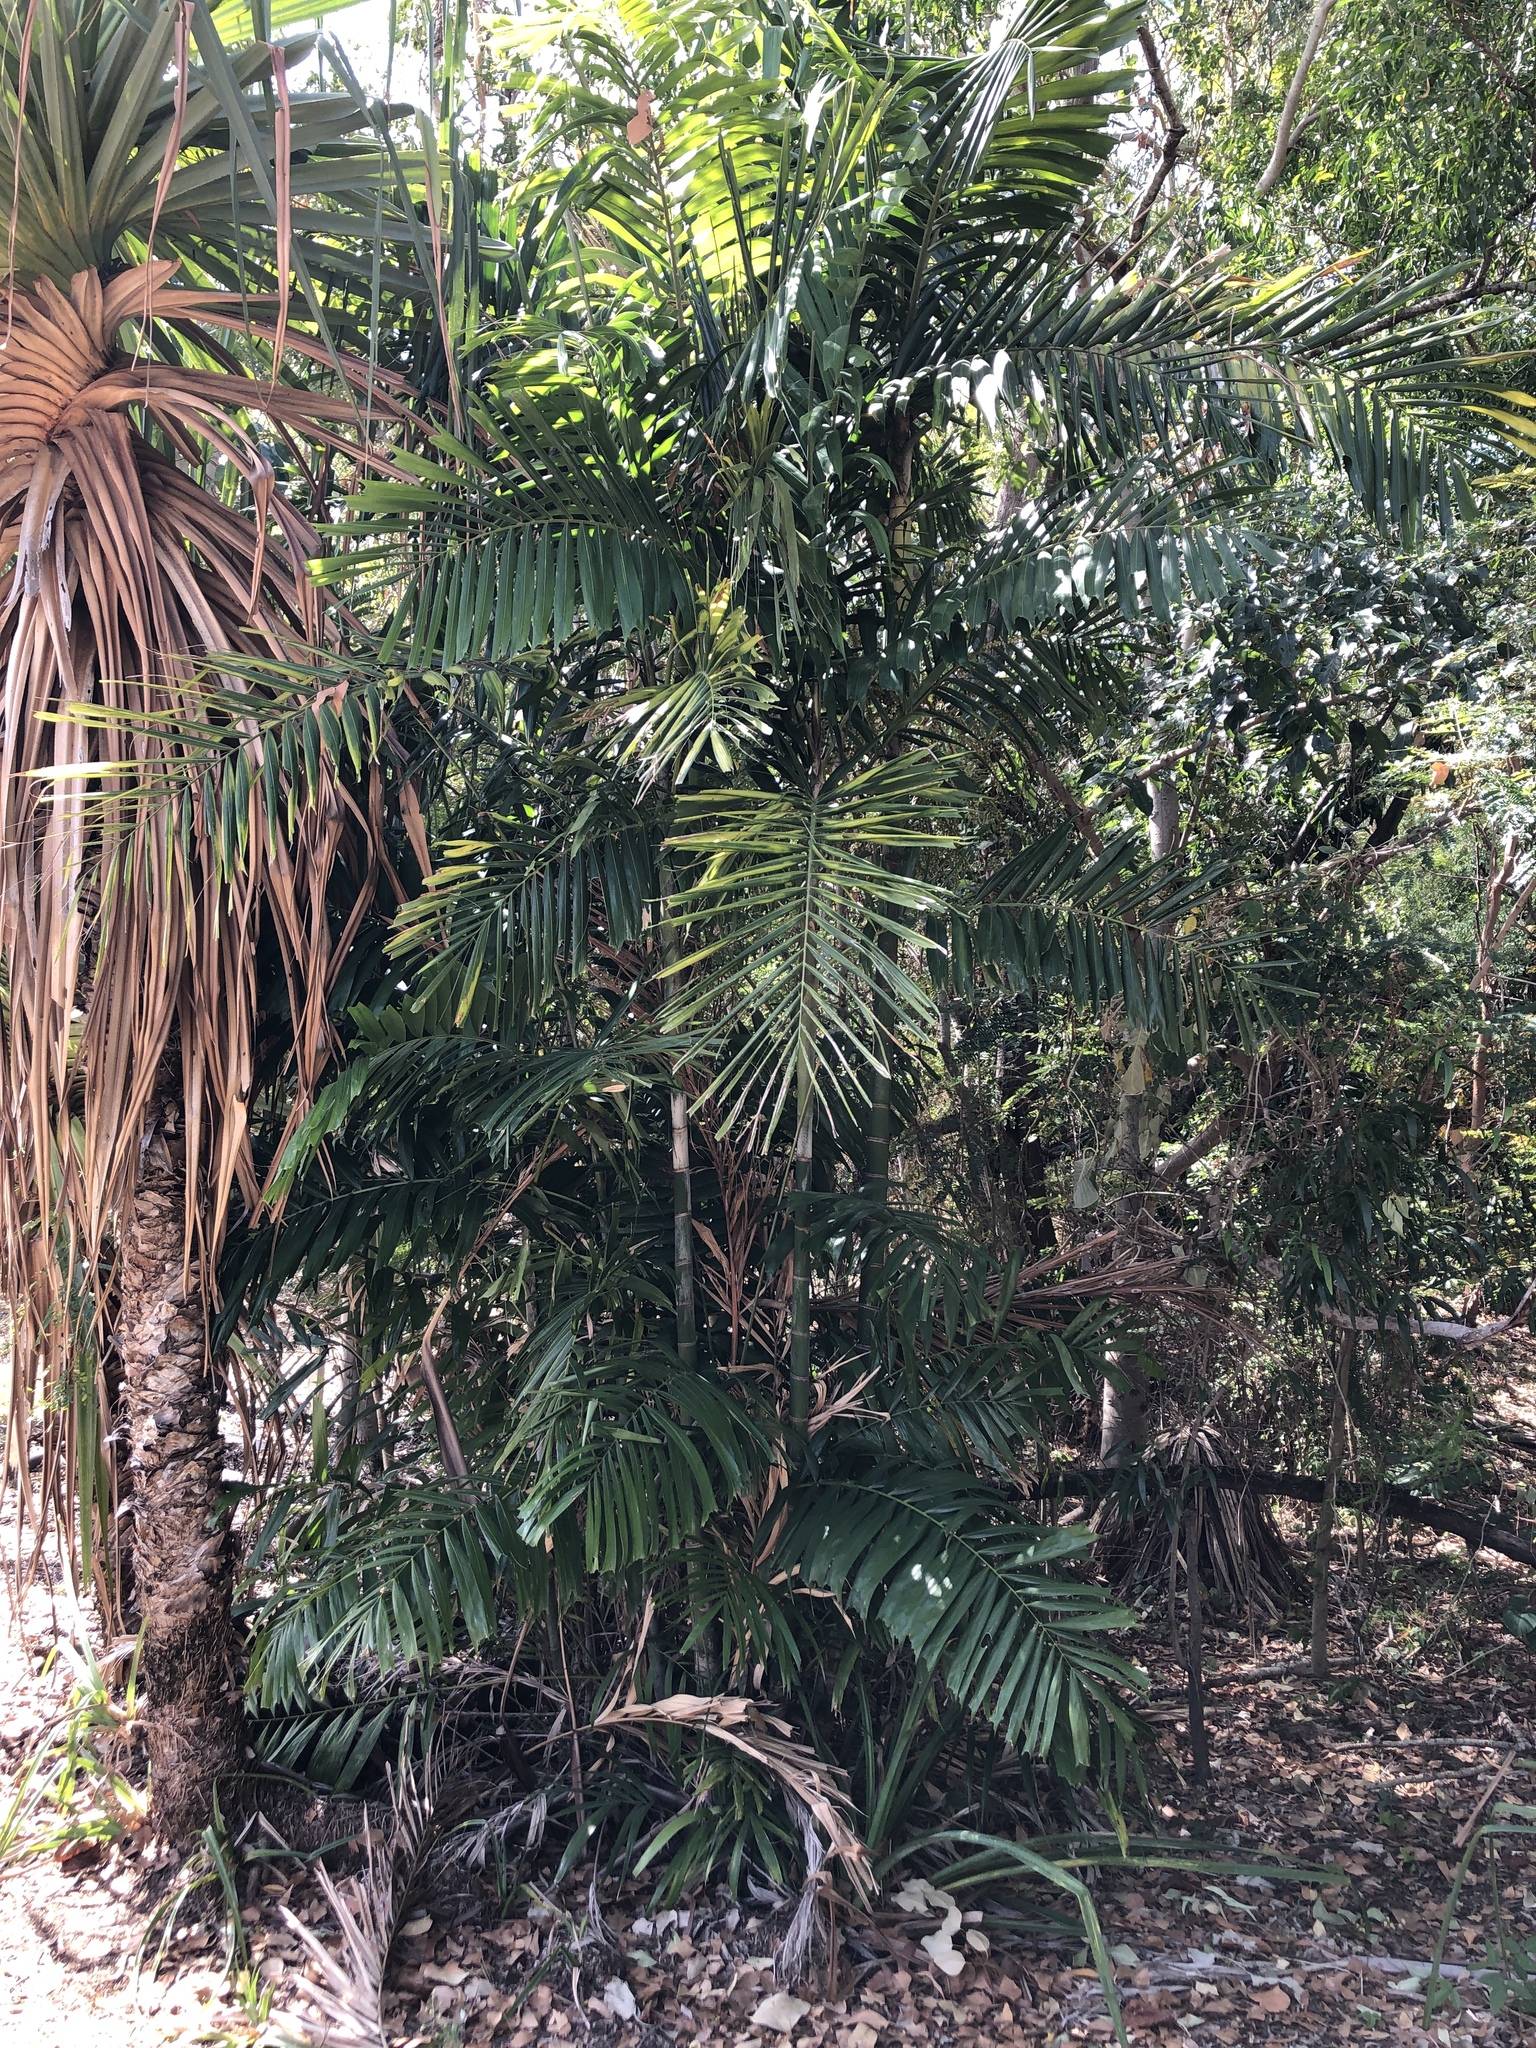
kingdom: Plantae
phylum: Tracheophyta
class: Liliopsida
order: Arecales
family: Arecaceae
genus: Ptychosperma
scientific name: Ptychosperma macarthurii
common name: Macarthur palm
